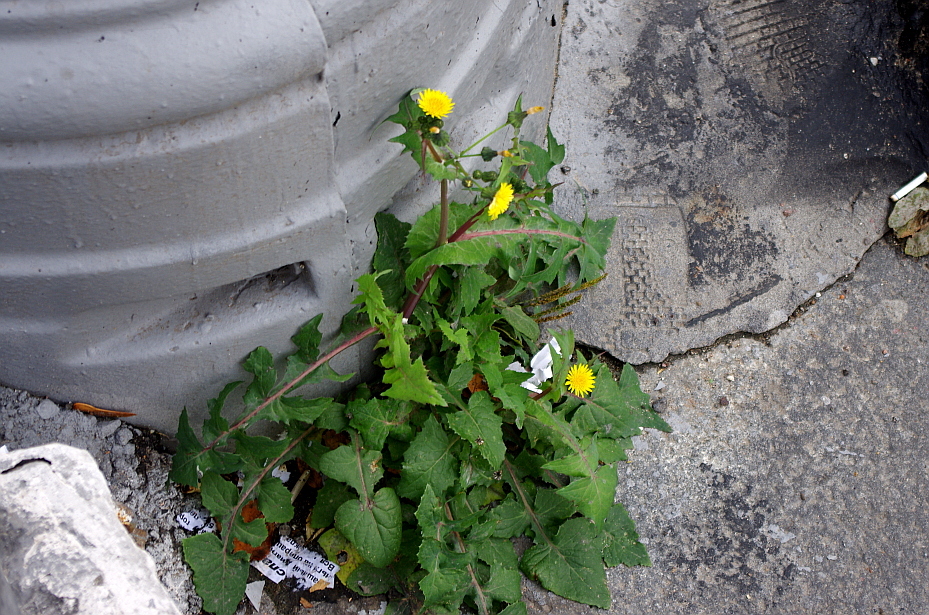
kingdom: Plantae
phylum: Tracheophyta
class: Magnoliopsida
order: Asterales
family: Asteraceae
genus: Sonchus
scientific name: Sonchus oleraceus
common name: Common sowthistle
